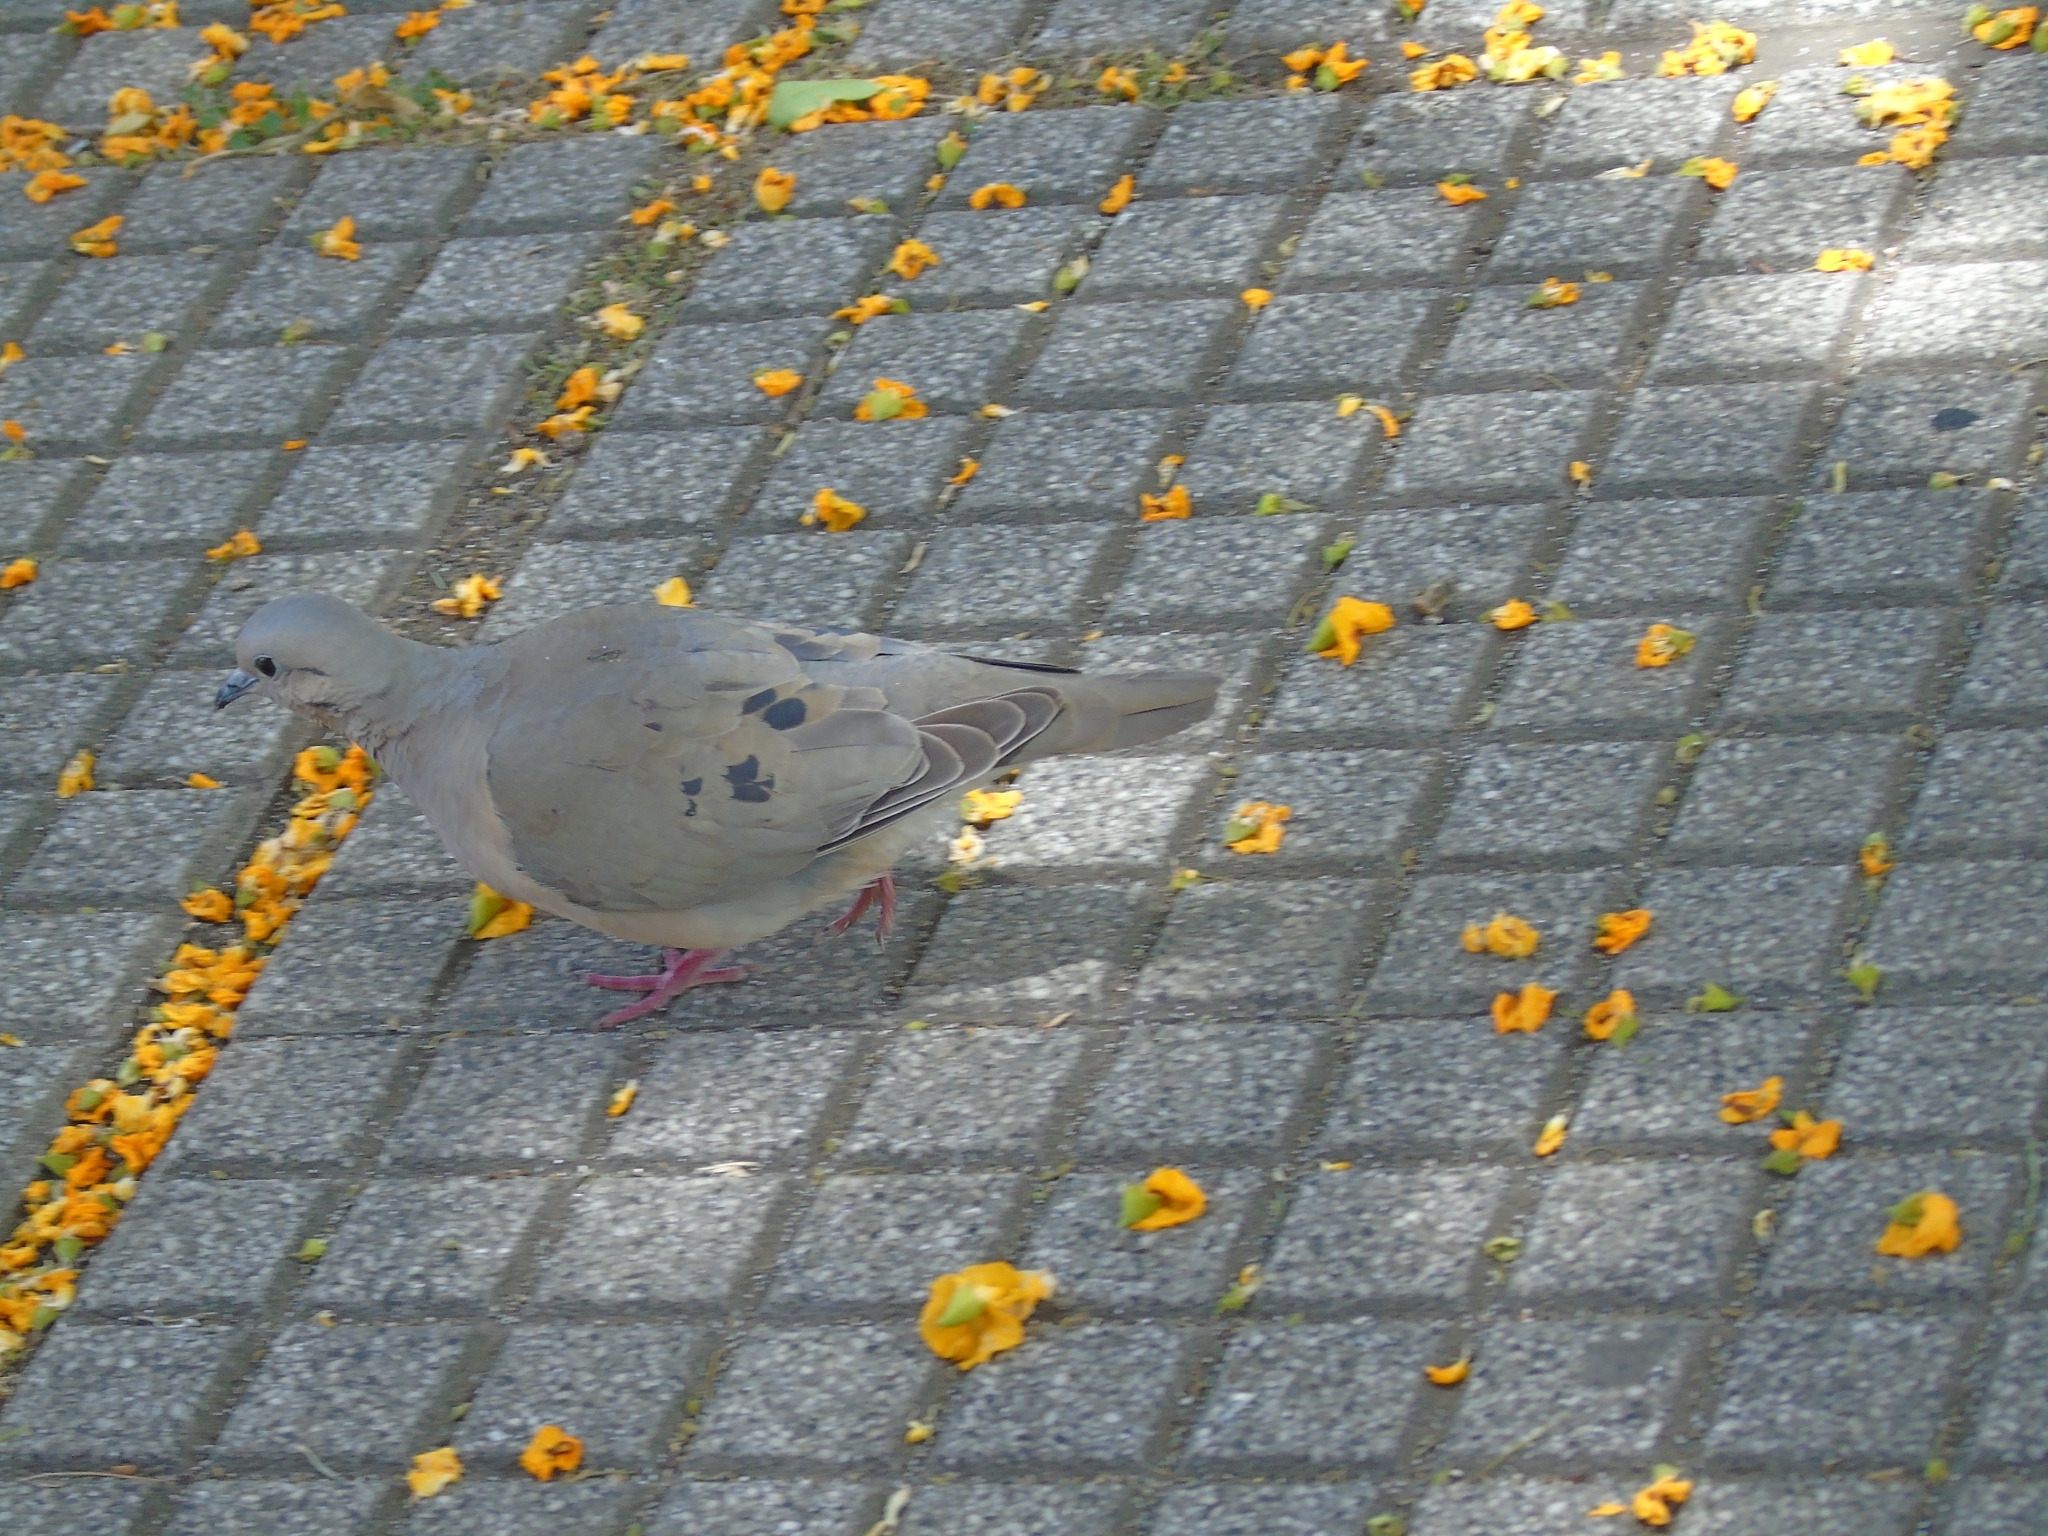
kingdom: Animalia
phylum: Chordata
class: Aves
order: Columbiformes
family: Columbidae
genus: Zenaida
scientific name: Zenaida auriculata
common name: Eared dove
